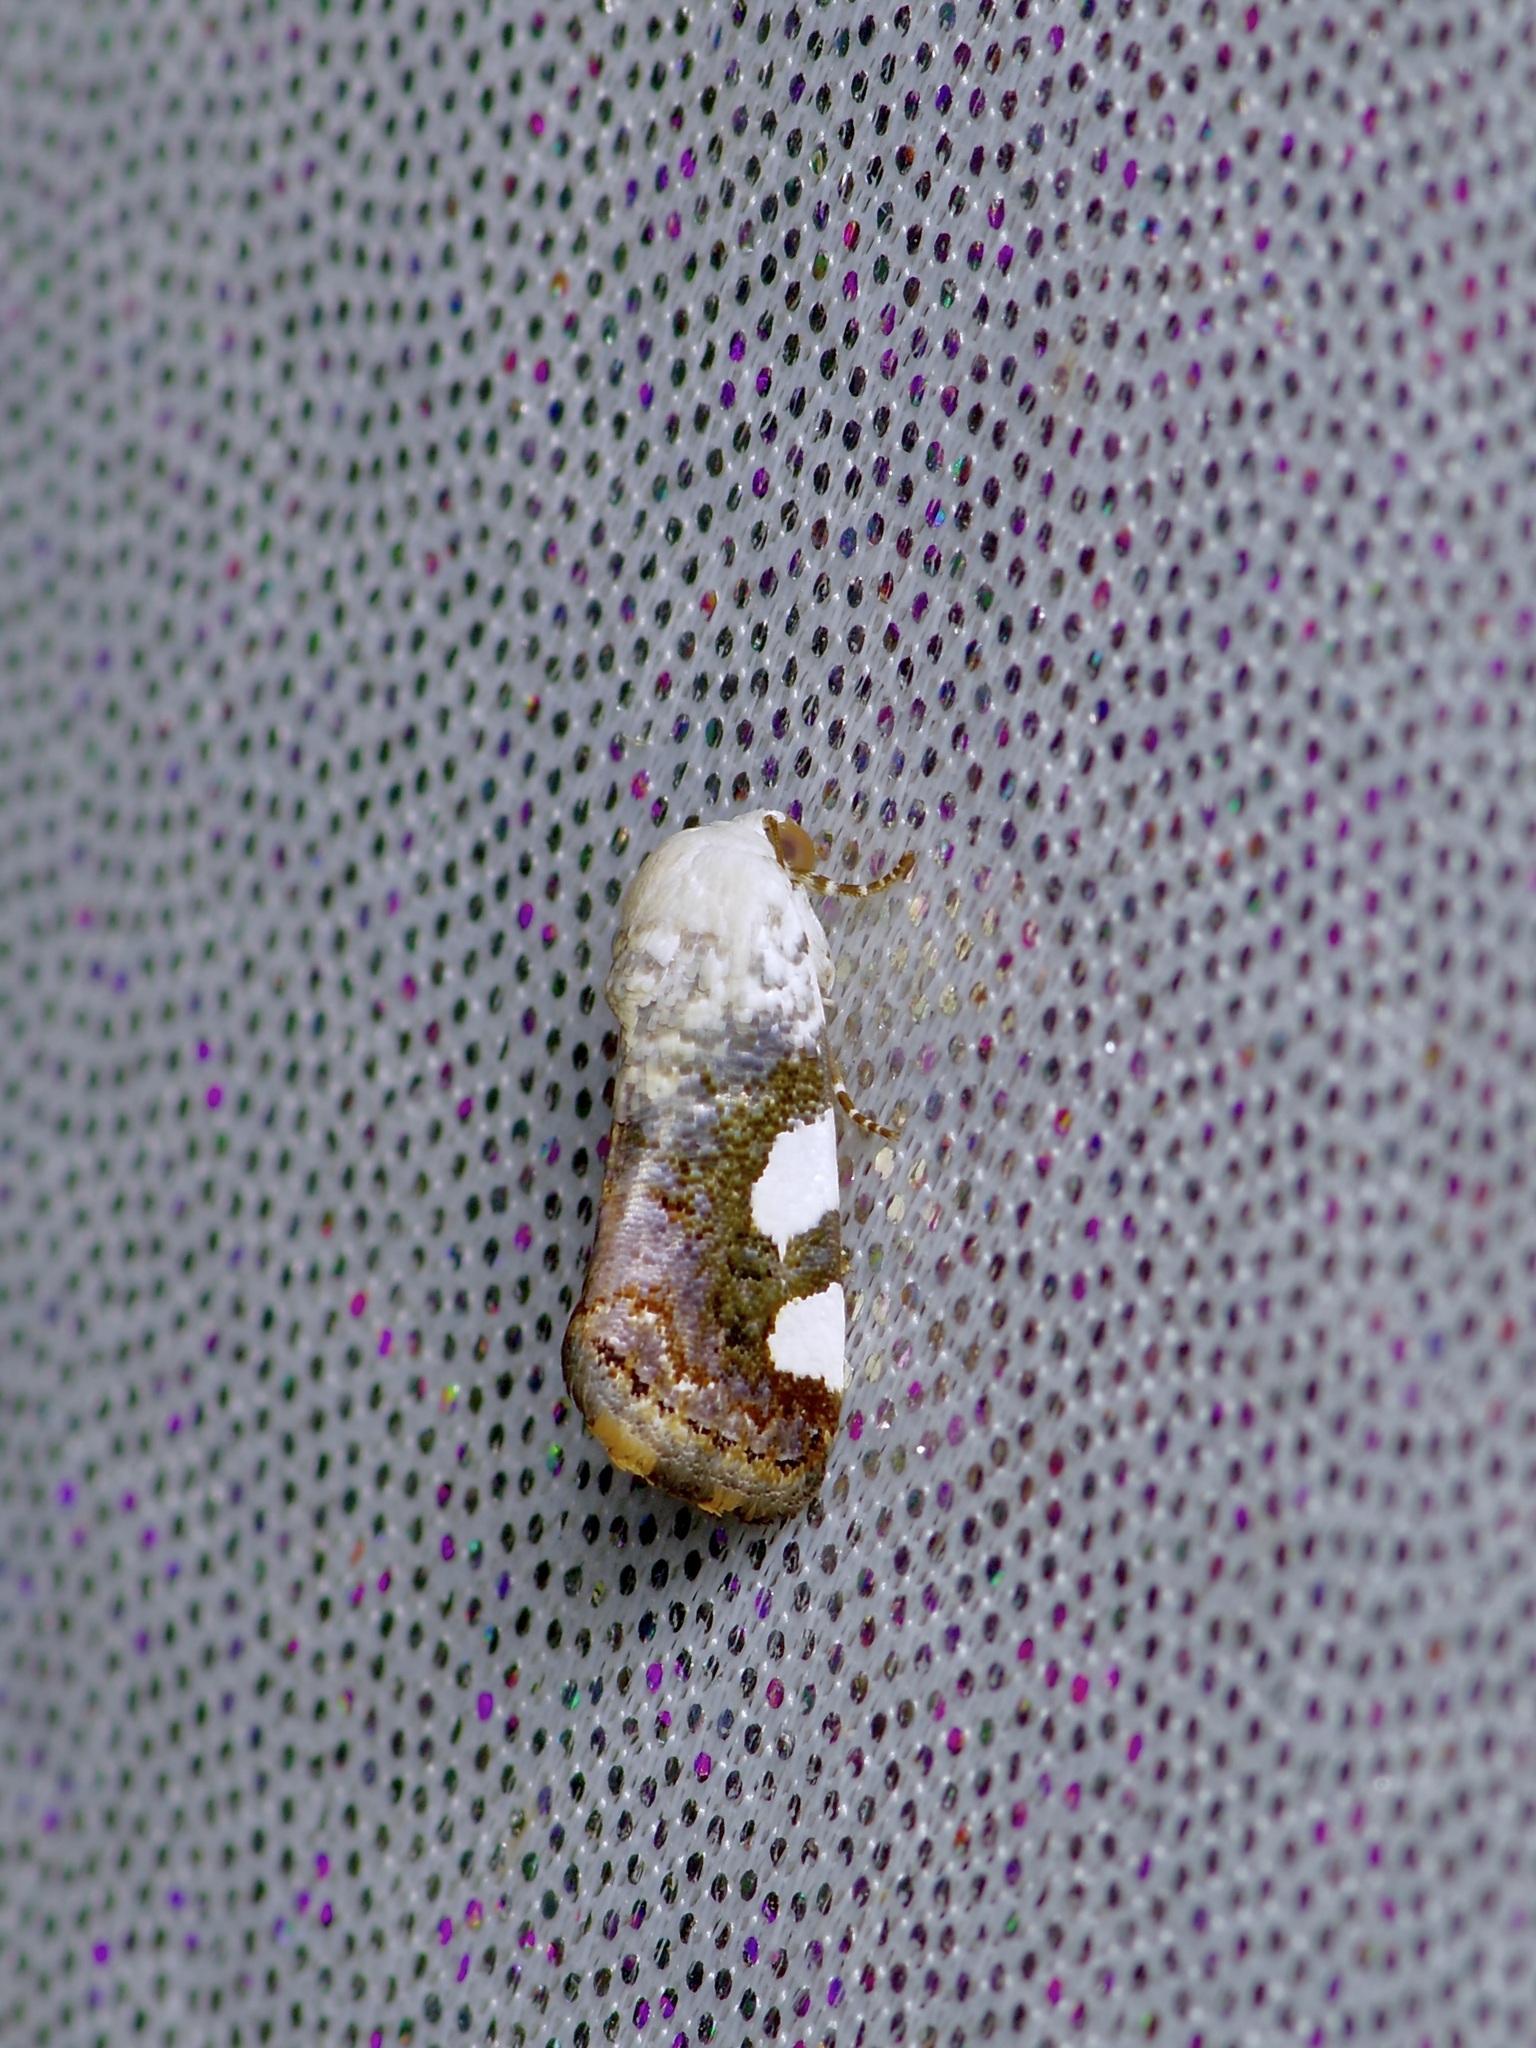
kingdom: Animalia
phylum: Arthropoda
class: Insecta
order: Lepidoptera
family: Noctuidae
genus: Acontia
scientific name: Acontia quadriplaga
